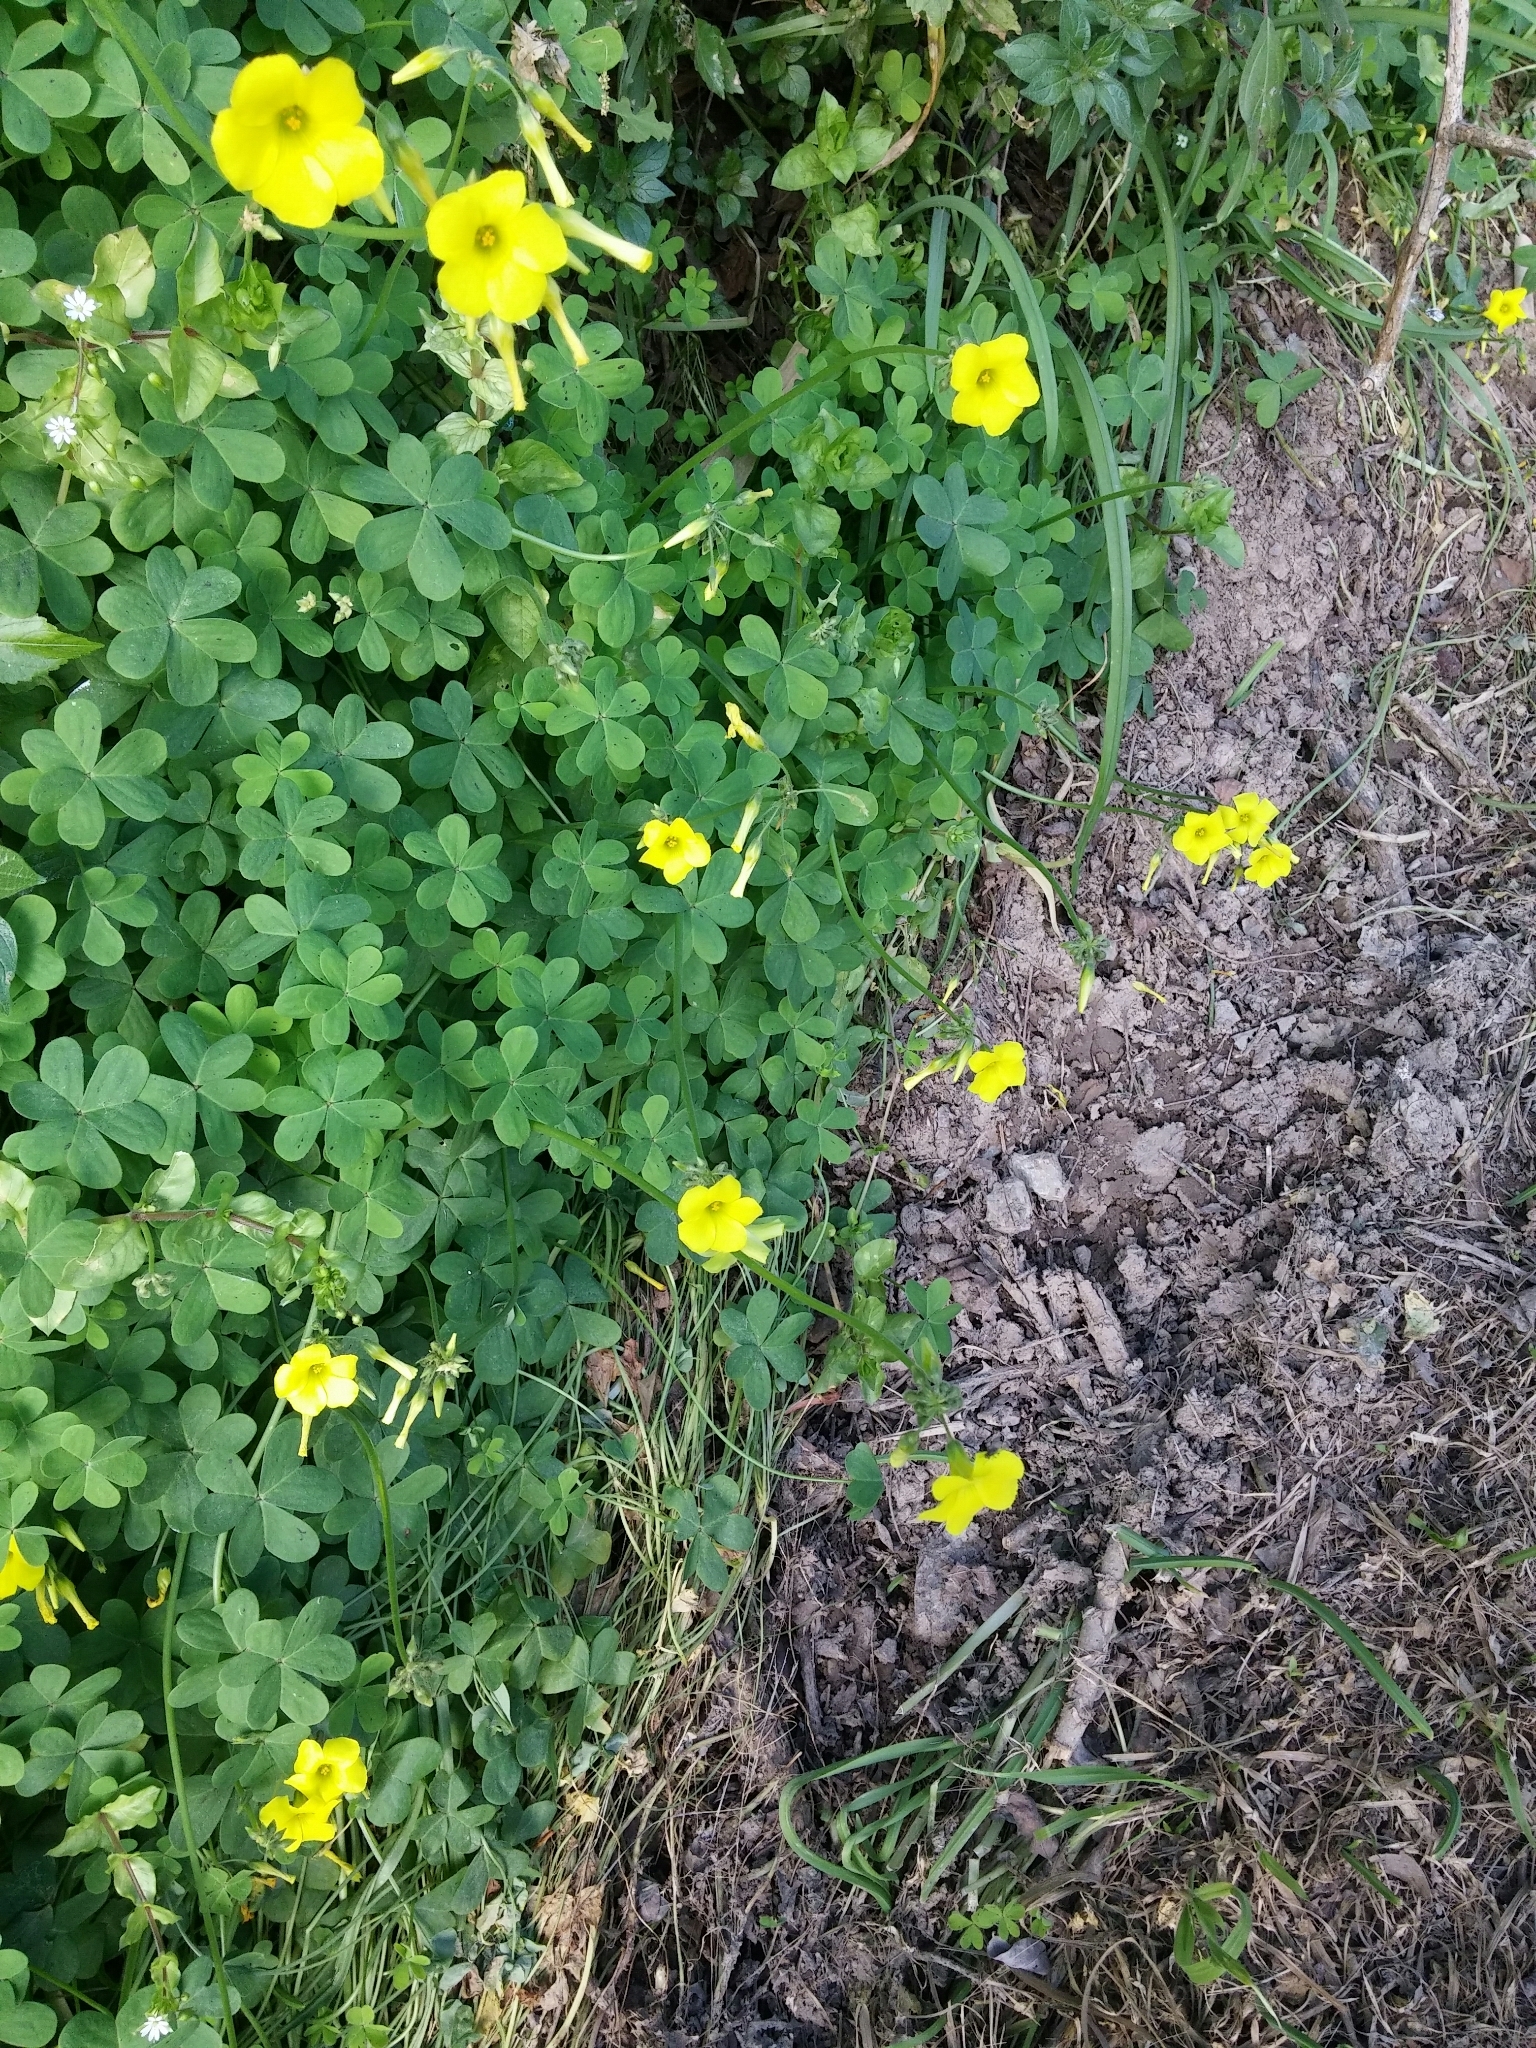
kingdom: Plantae
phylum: Tracheophyta
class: Magnoliopsida
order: Oxalidales
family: Oxalidaceae
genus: Oxalis
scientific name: Oxalis pes-caprae
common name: Bermuda-buttercup
